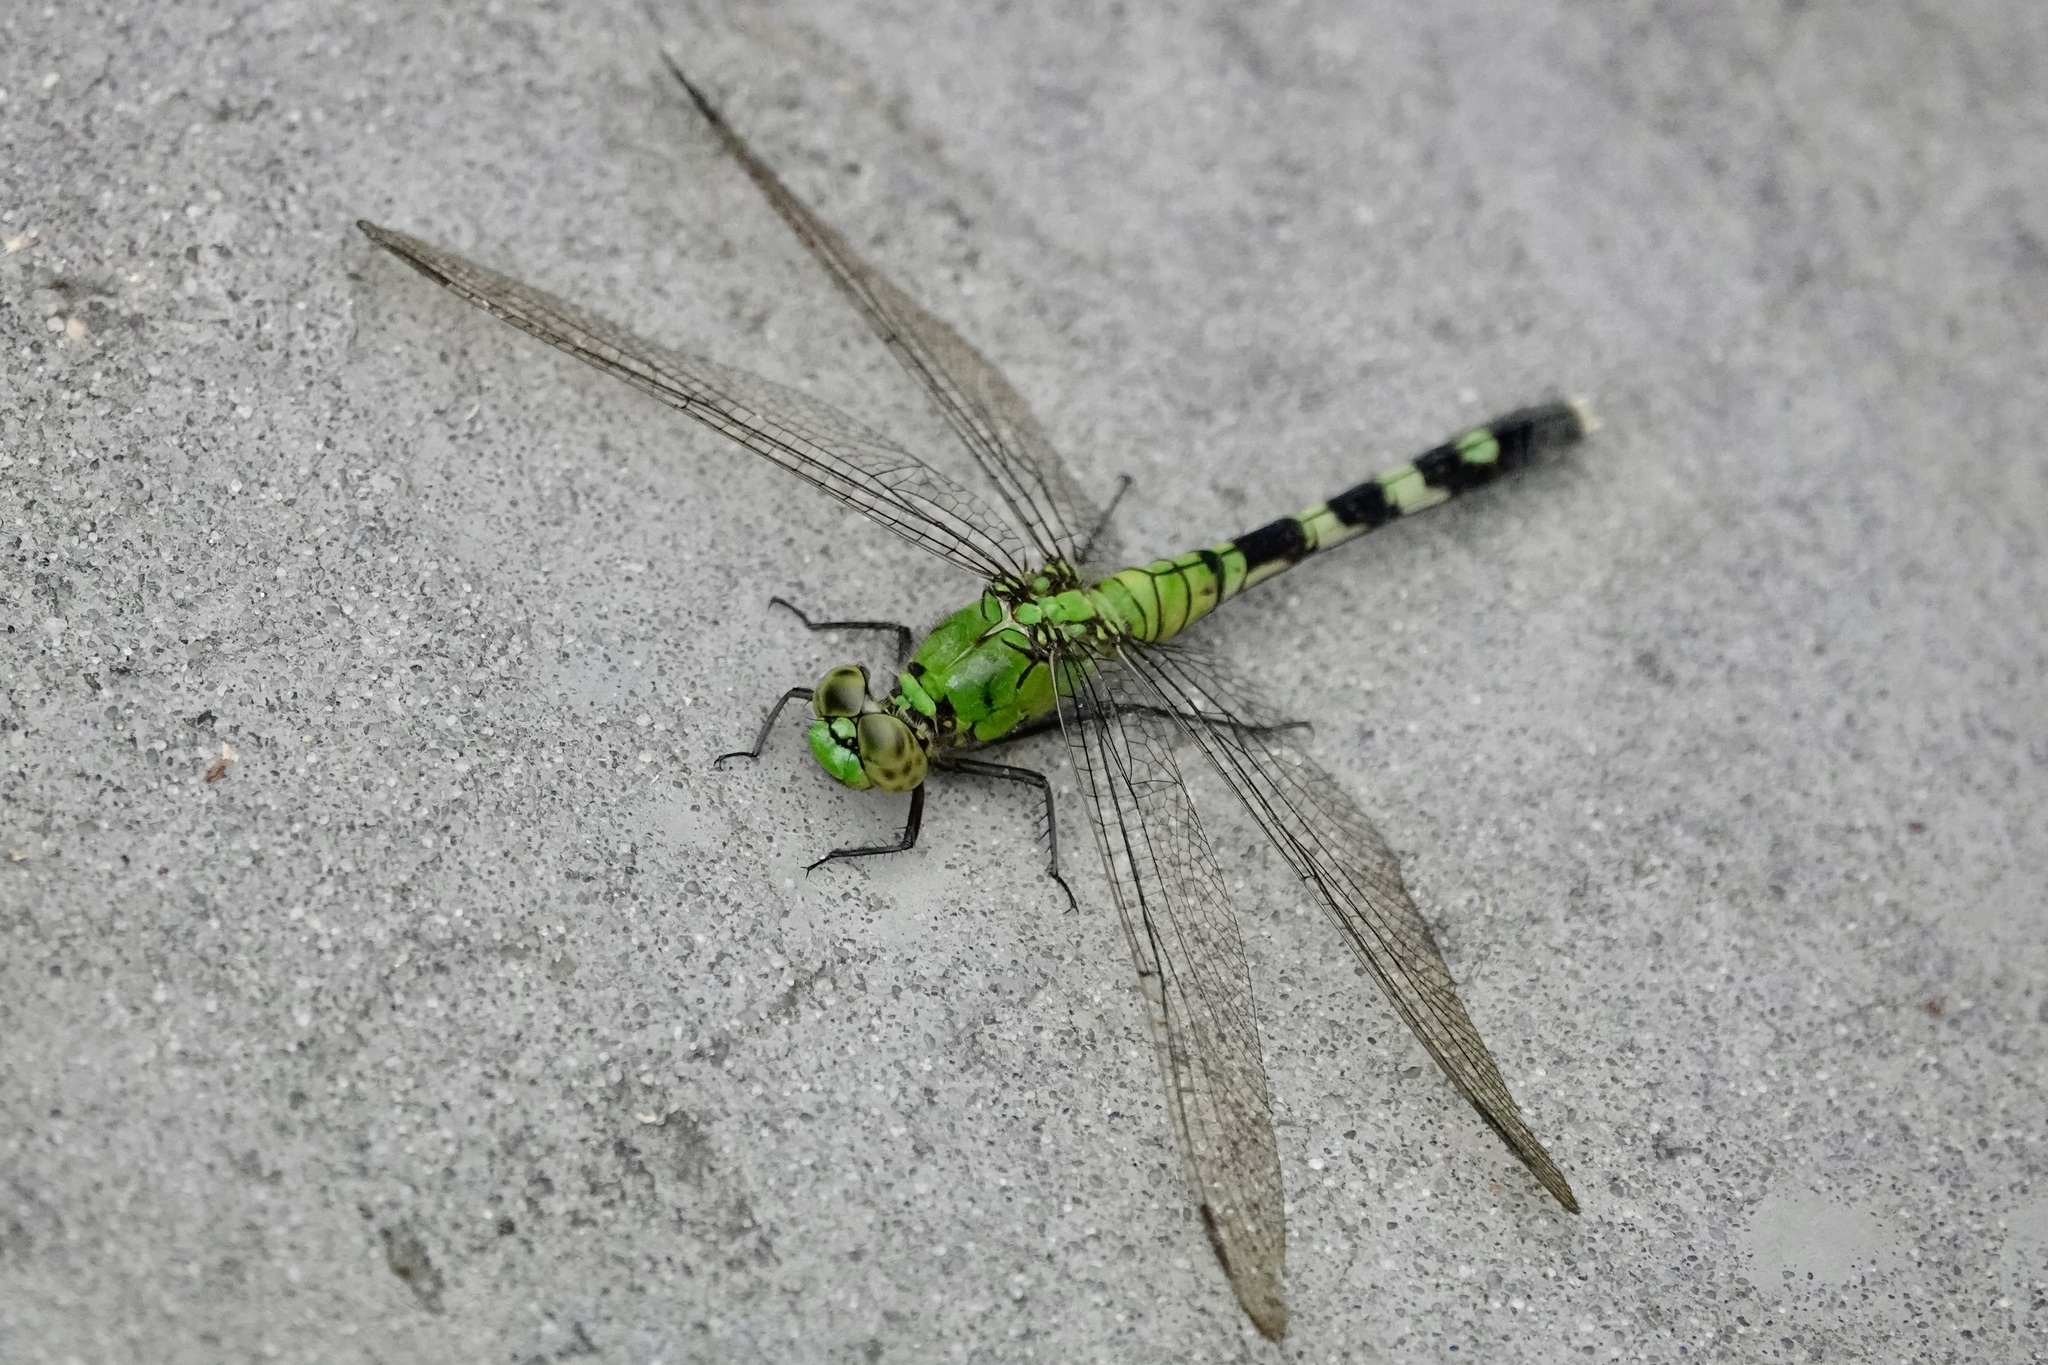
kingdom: Animalia
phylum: Arthropoda
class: Insecta
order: Odonata
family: Libellulidae
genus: Erythemis
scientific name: Erythemis simplicicollis
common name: Eastern pondhawk
